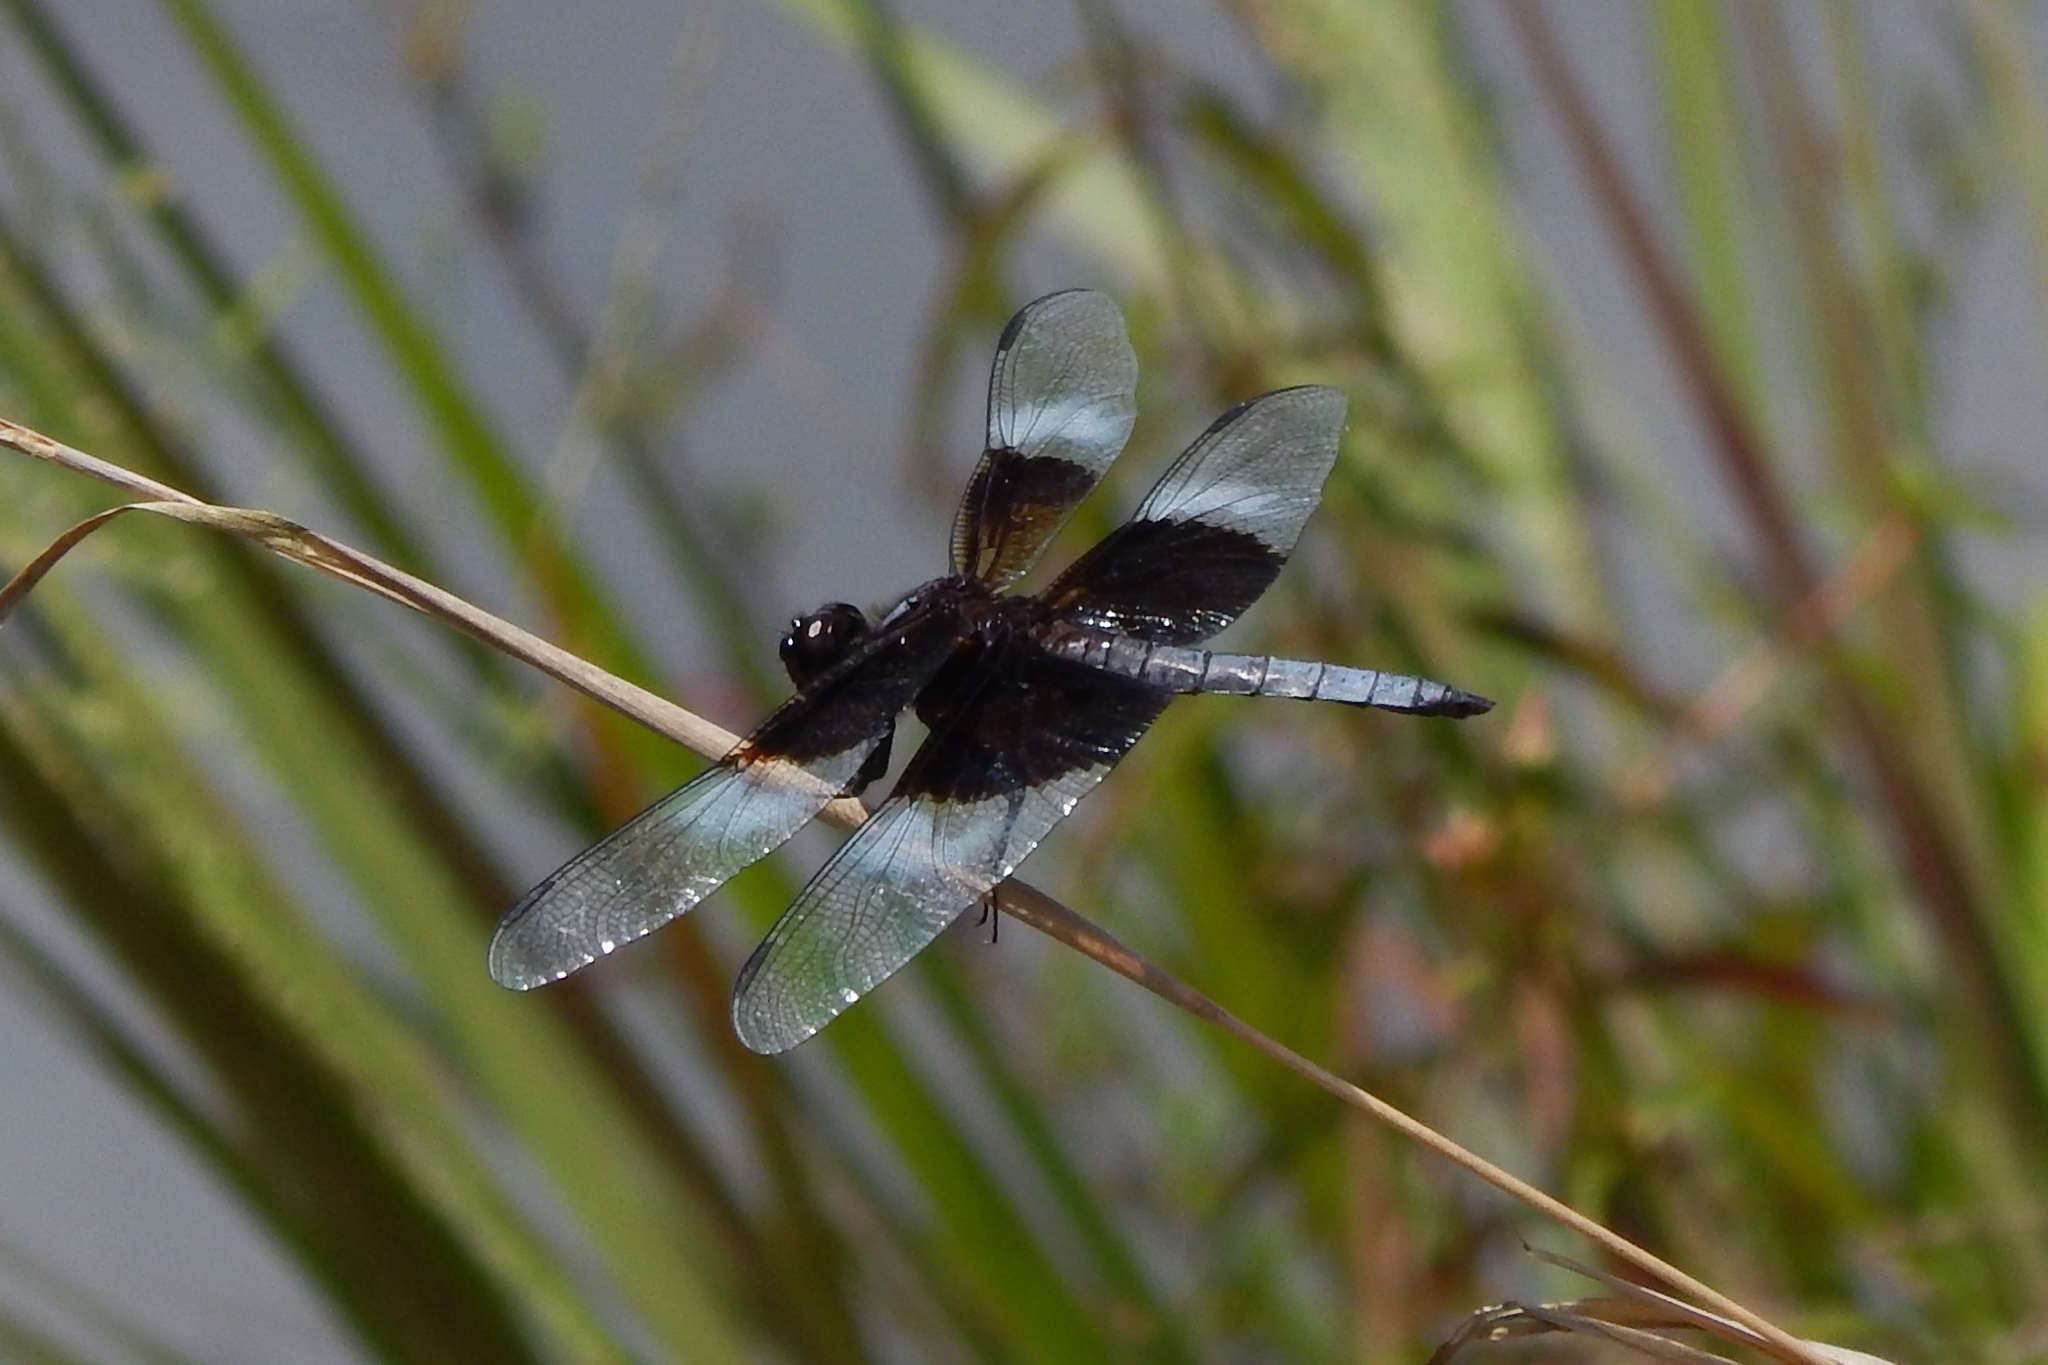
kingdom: Animalia
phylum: Arthropoda
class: Insecta
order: Odonata
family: Libellulidae
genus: Libellula
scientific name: Libellula luctuosa
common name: Widow skimmer
